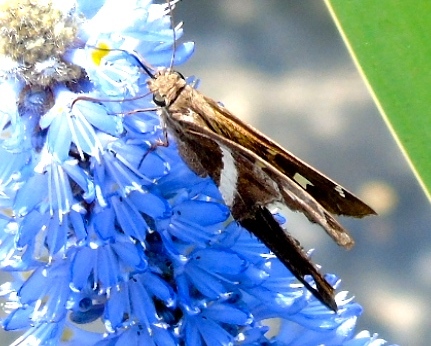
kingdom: Animalia
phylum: Arthropoda
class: Insecta
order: Lepidoptera
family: Hesperiidae
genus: Chioides
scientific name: Chioides catillus
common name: Silverbanded skipper
